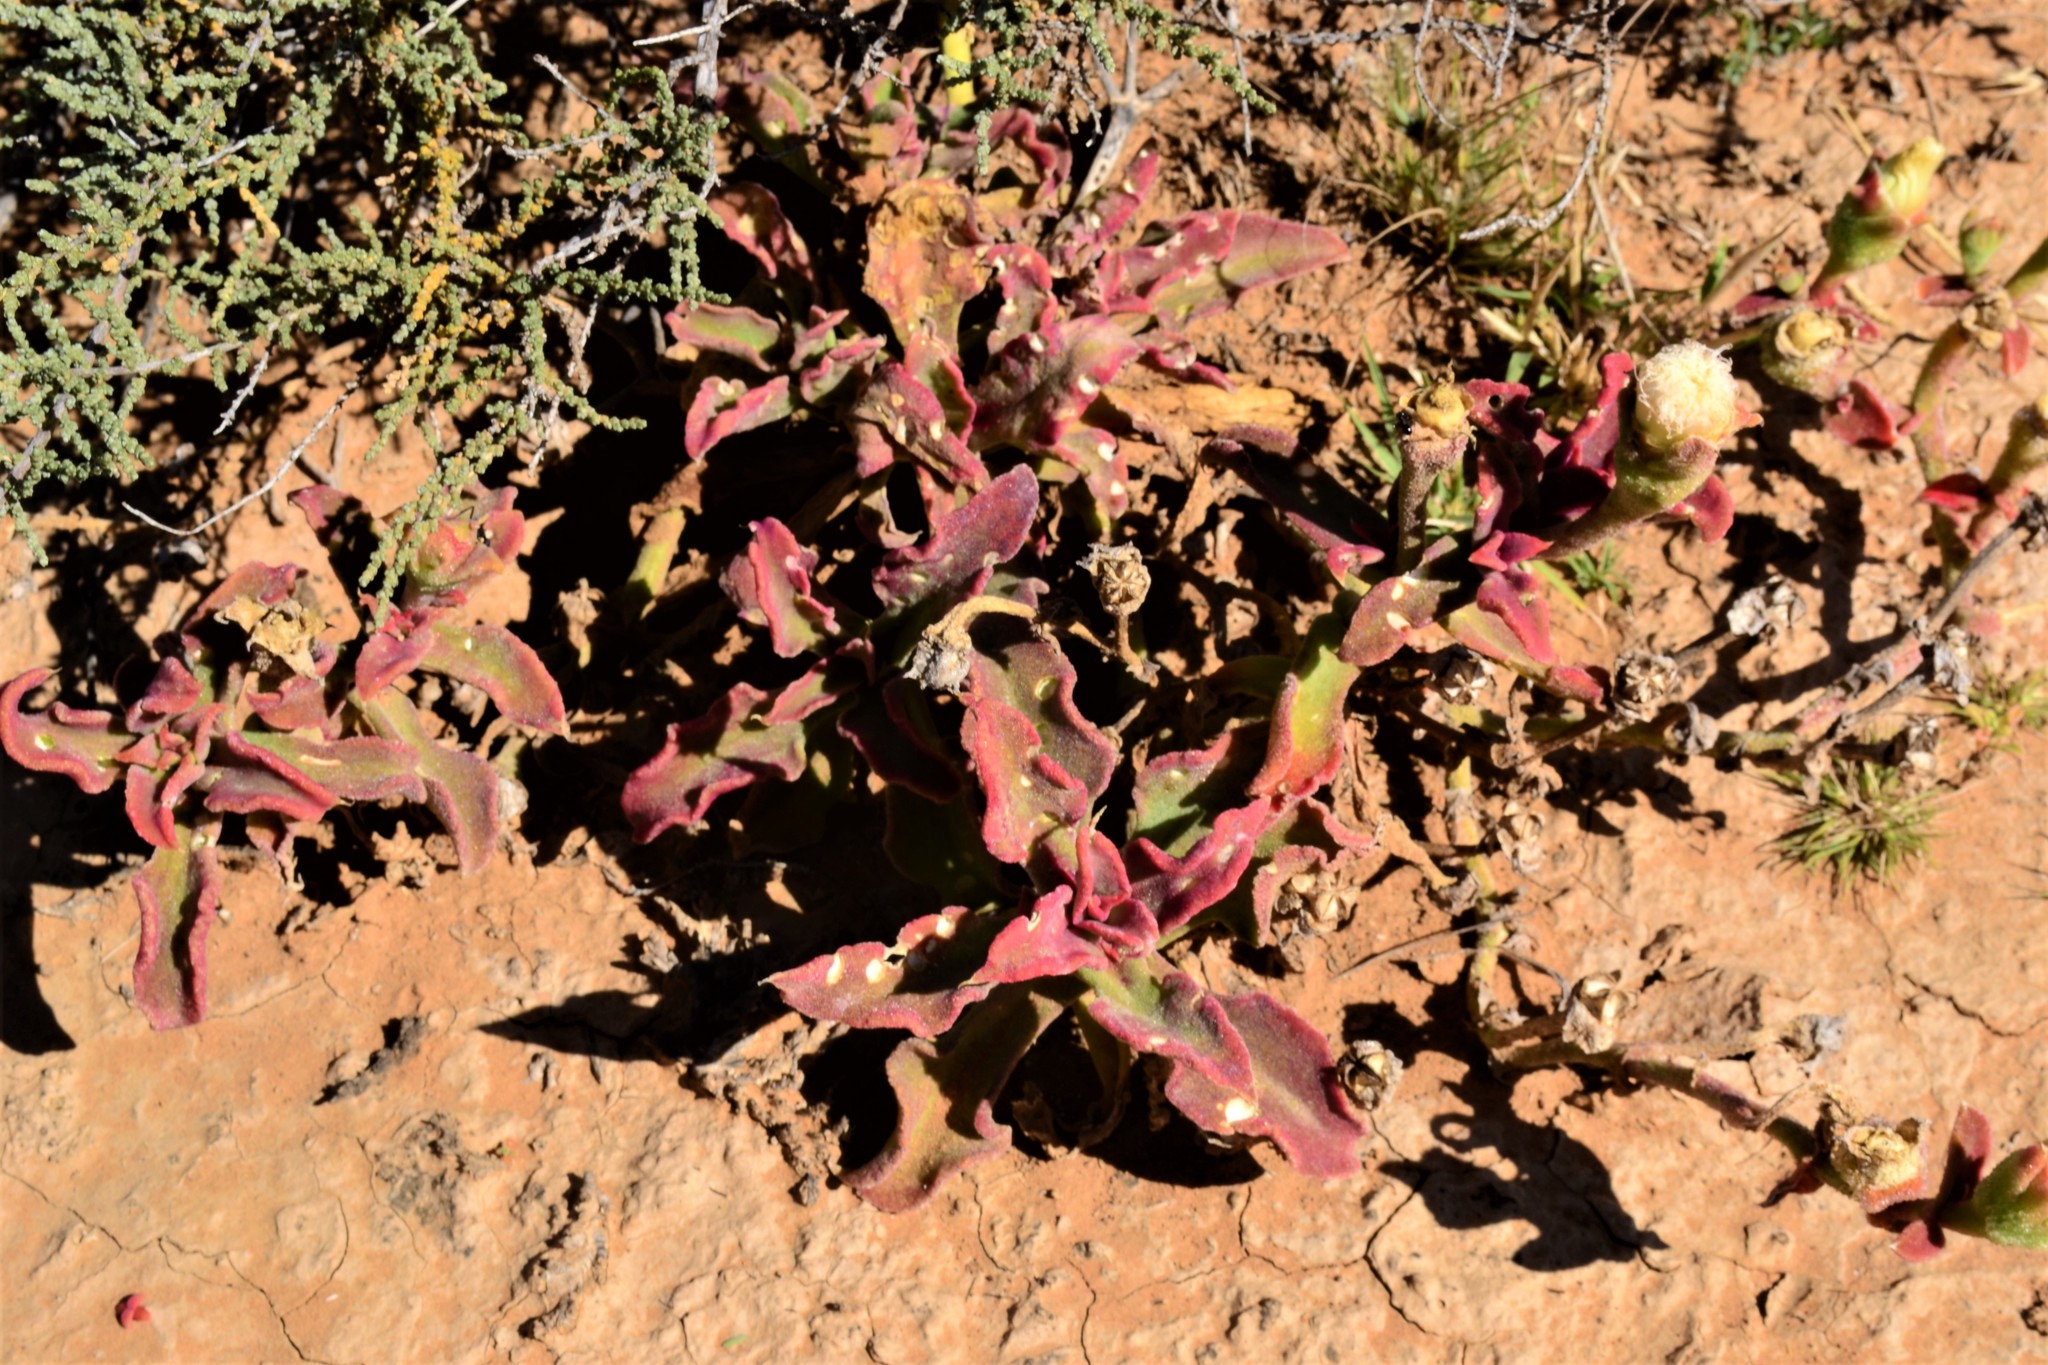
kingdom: Plantae
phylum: Tracheophyta
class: Magnoliopsida
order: Caryophyllales
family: Aizoaceae
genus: Mesembryanthemum
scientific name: Mesembryanthemum guerichianum
